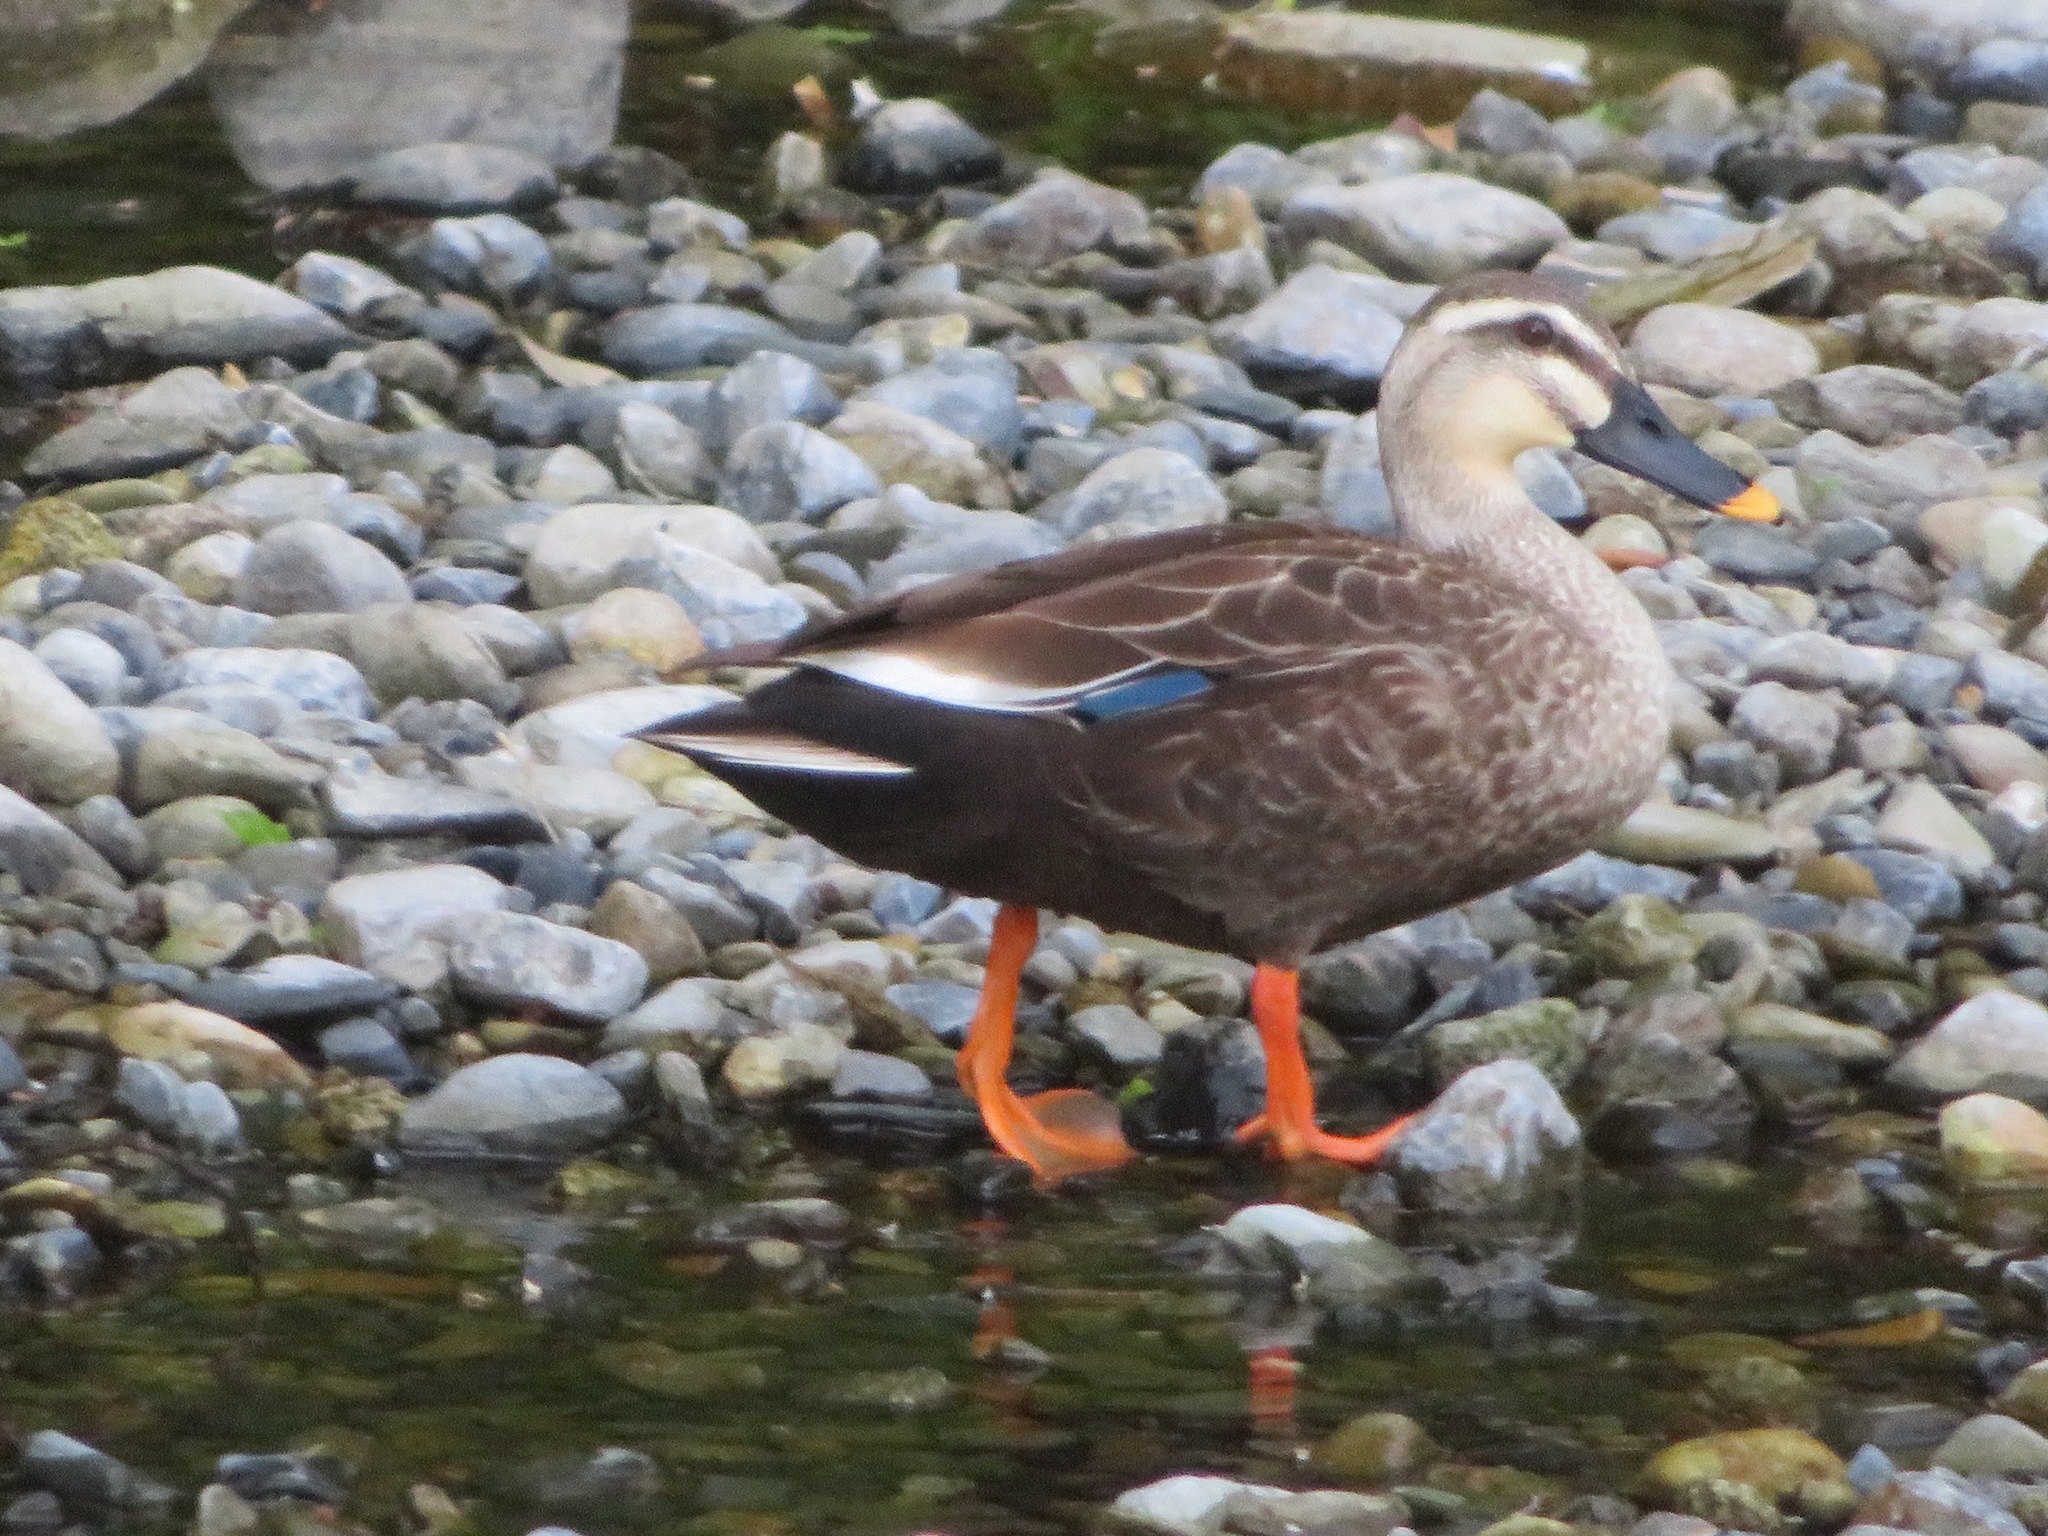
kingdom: Animalia
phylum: Chordata
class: Aves
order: Anseriformes
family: Anatidae
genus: Anas
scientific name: Anas zonorhyncha
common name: Eastern spot-billed duck
